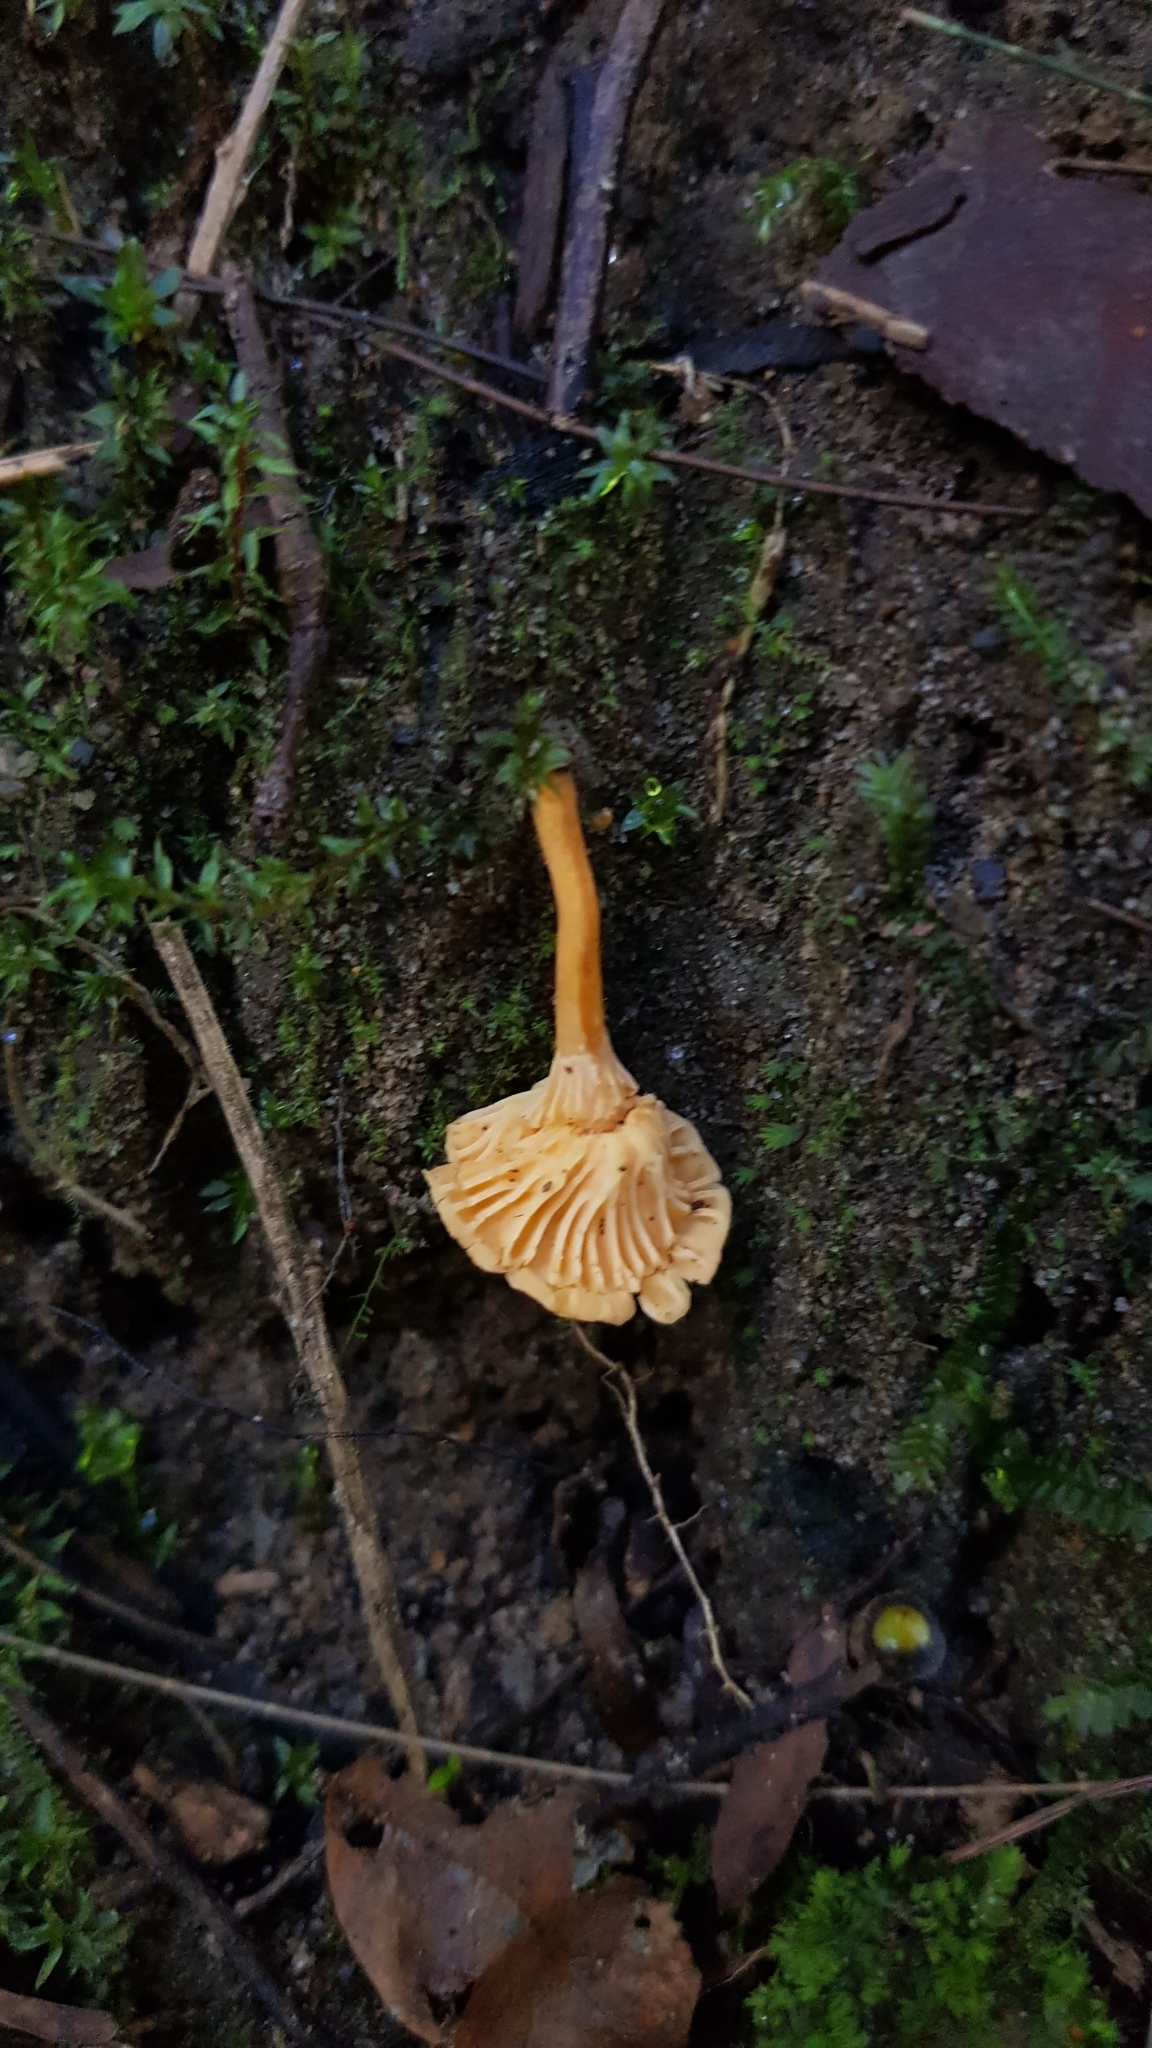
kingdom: Fungi
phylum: Basidiomycota
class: Agaricomycetes
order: Cantharellales
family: Hydnaceae
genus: Cantharellus
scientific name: Cantharellus
